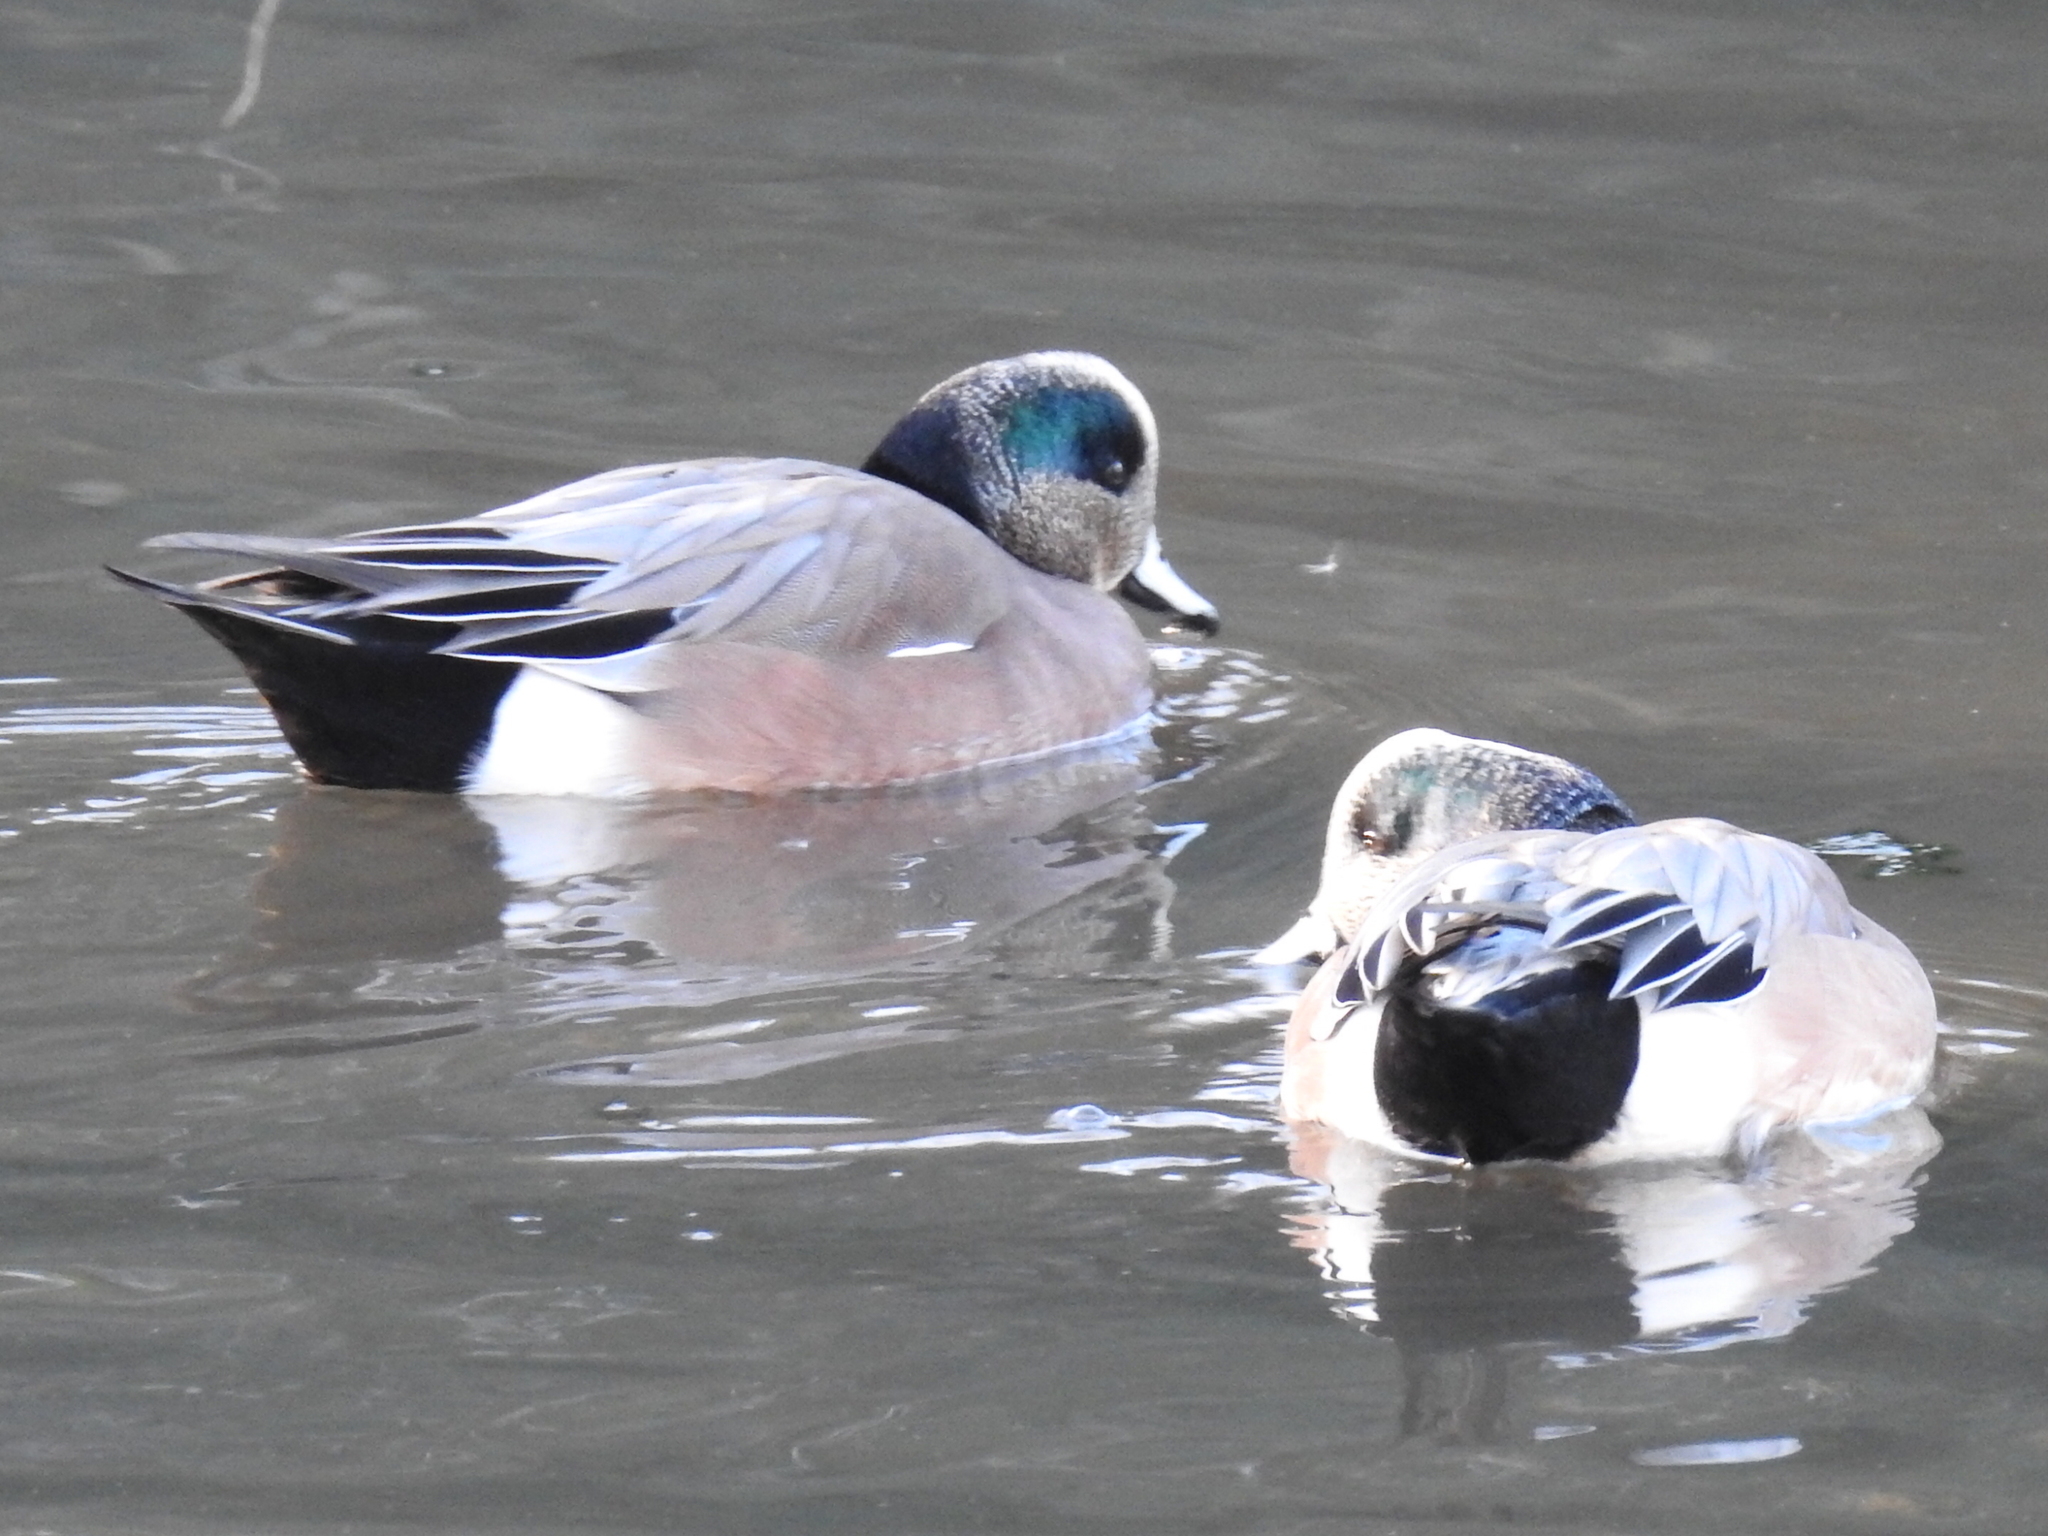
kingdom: Animalia
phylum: Chordata
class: Aves
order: Anseriformes
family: Anatidae
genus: Mareca
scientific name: Mareca americana
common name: American wigeon
